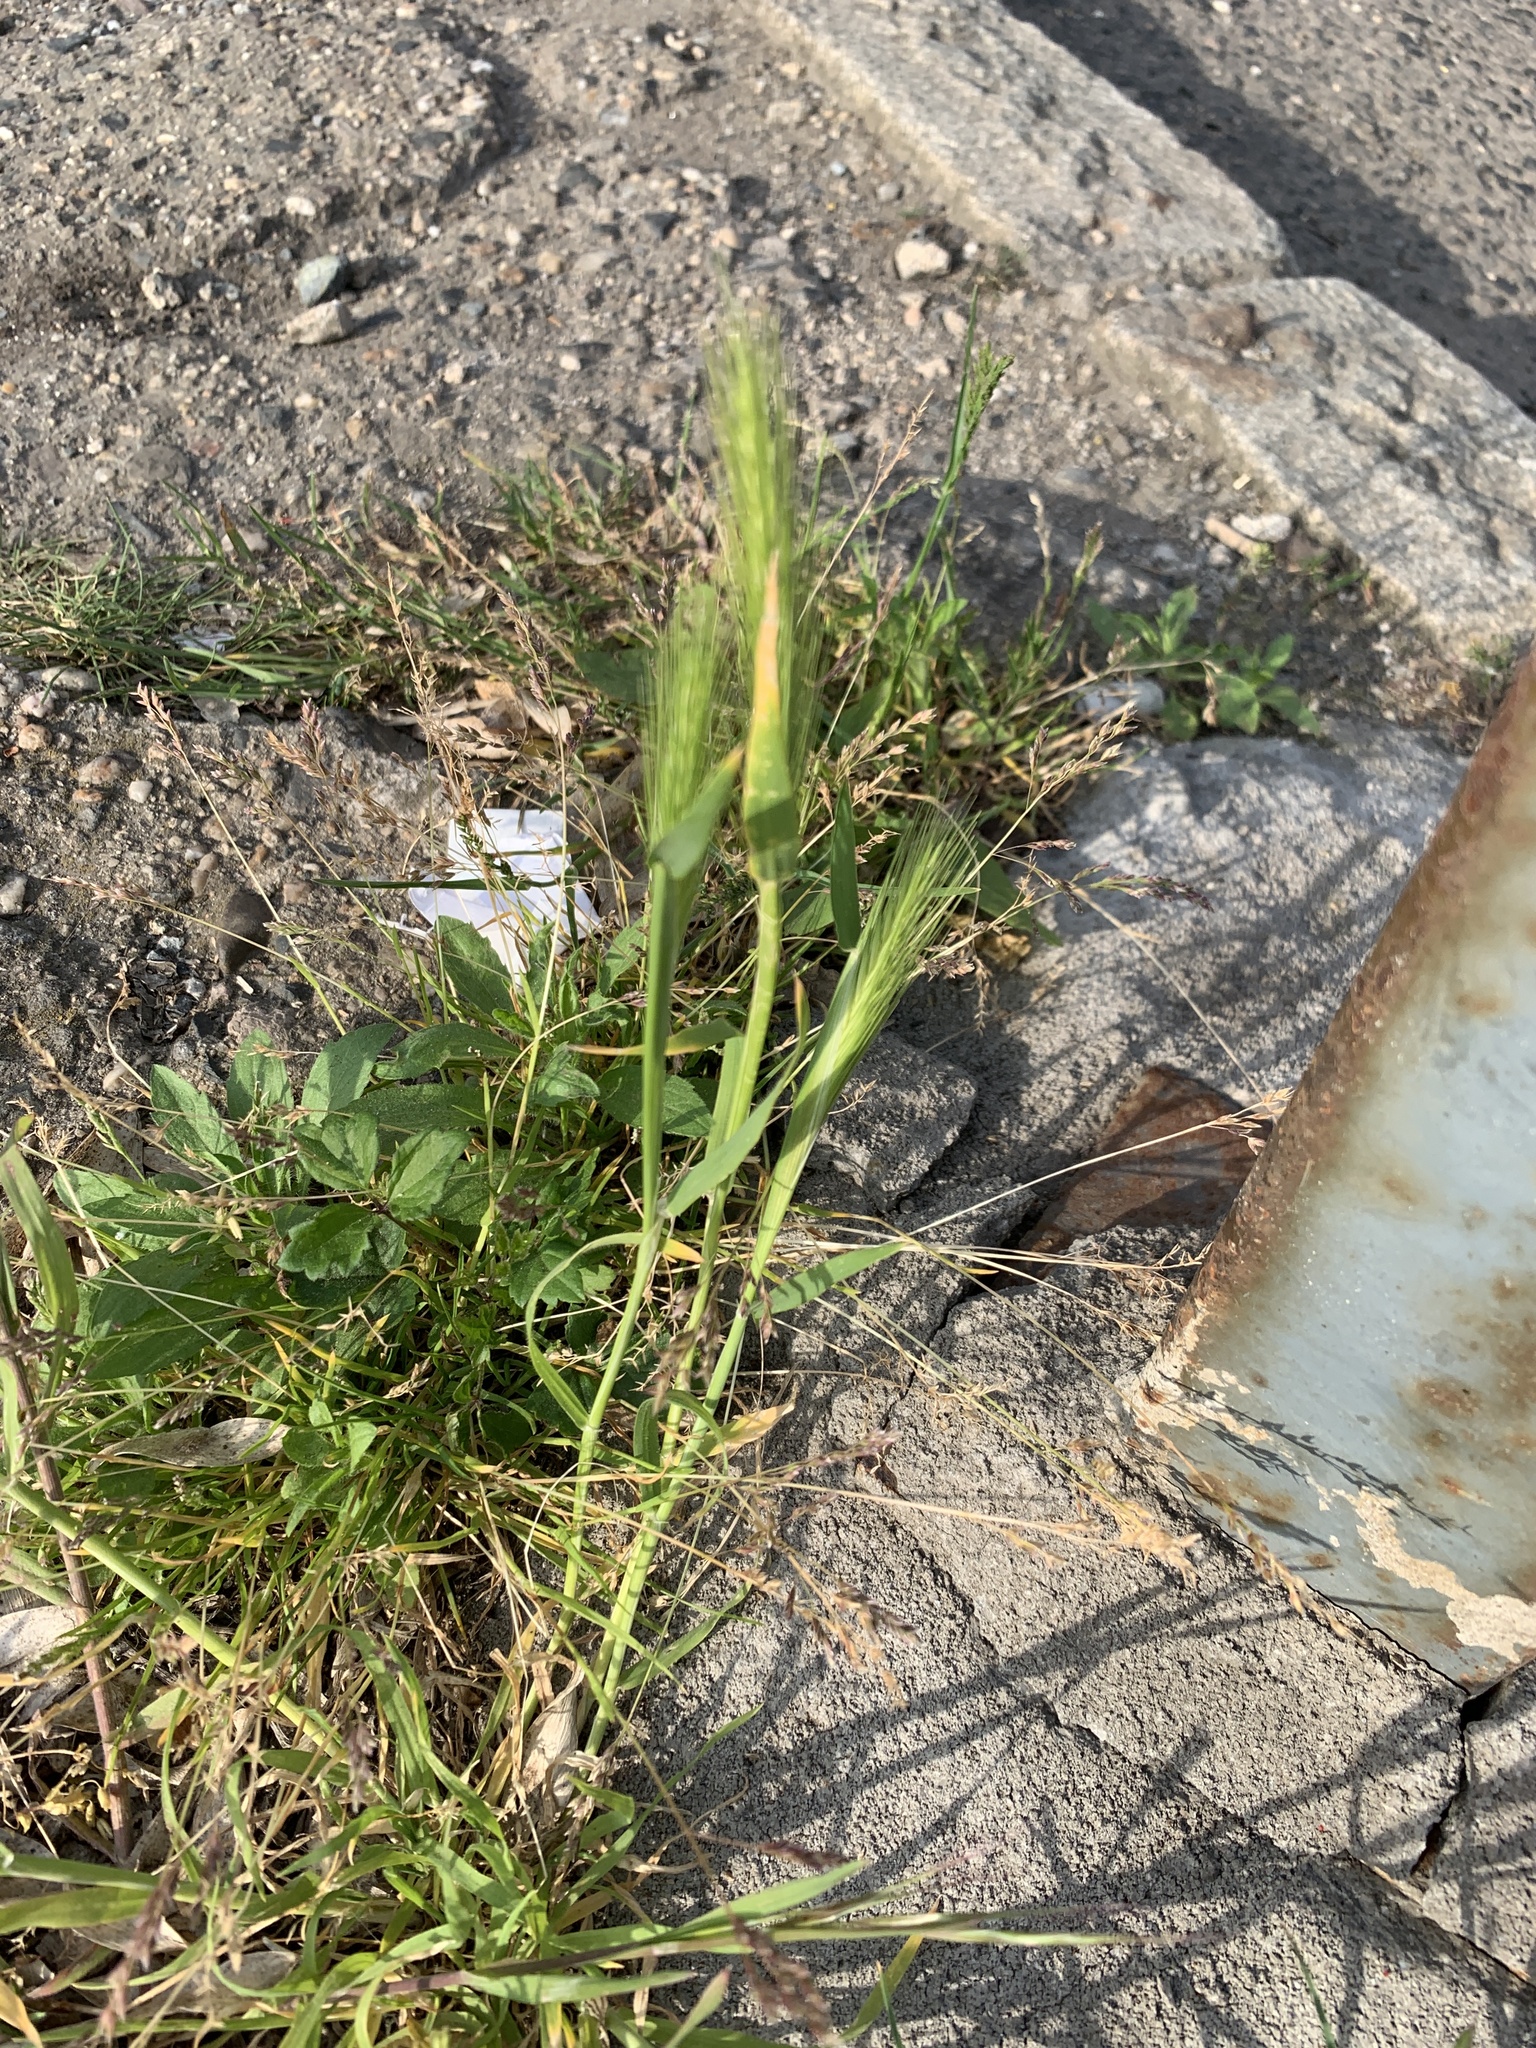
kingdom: Plantae
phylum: Tracheophyta
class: Liliopsida
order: Poales
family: Poaceae
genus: Hordeum
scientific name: Hordeum murinum
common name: Wall barley
